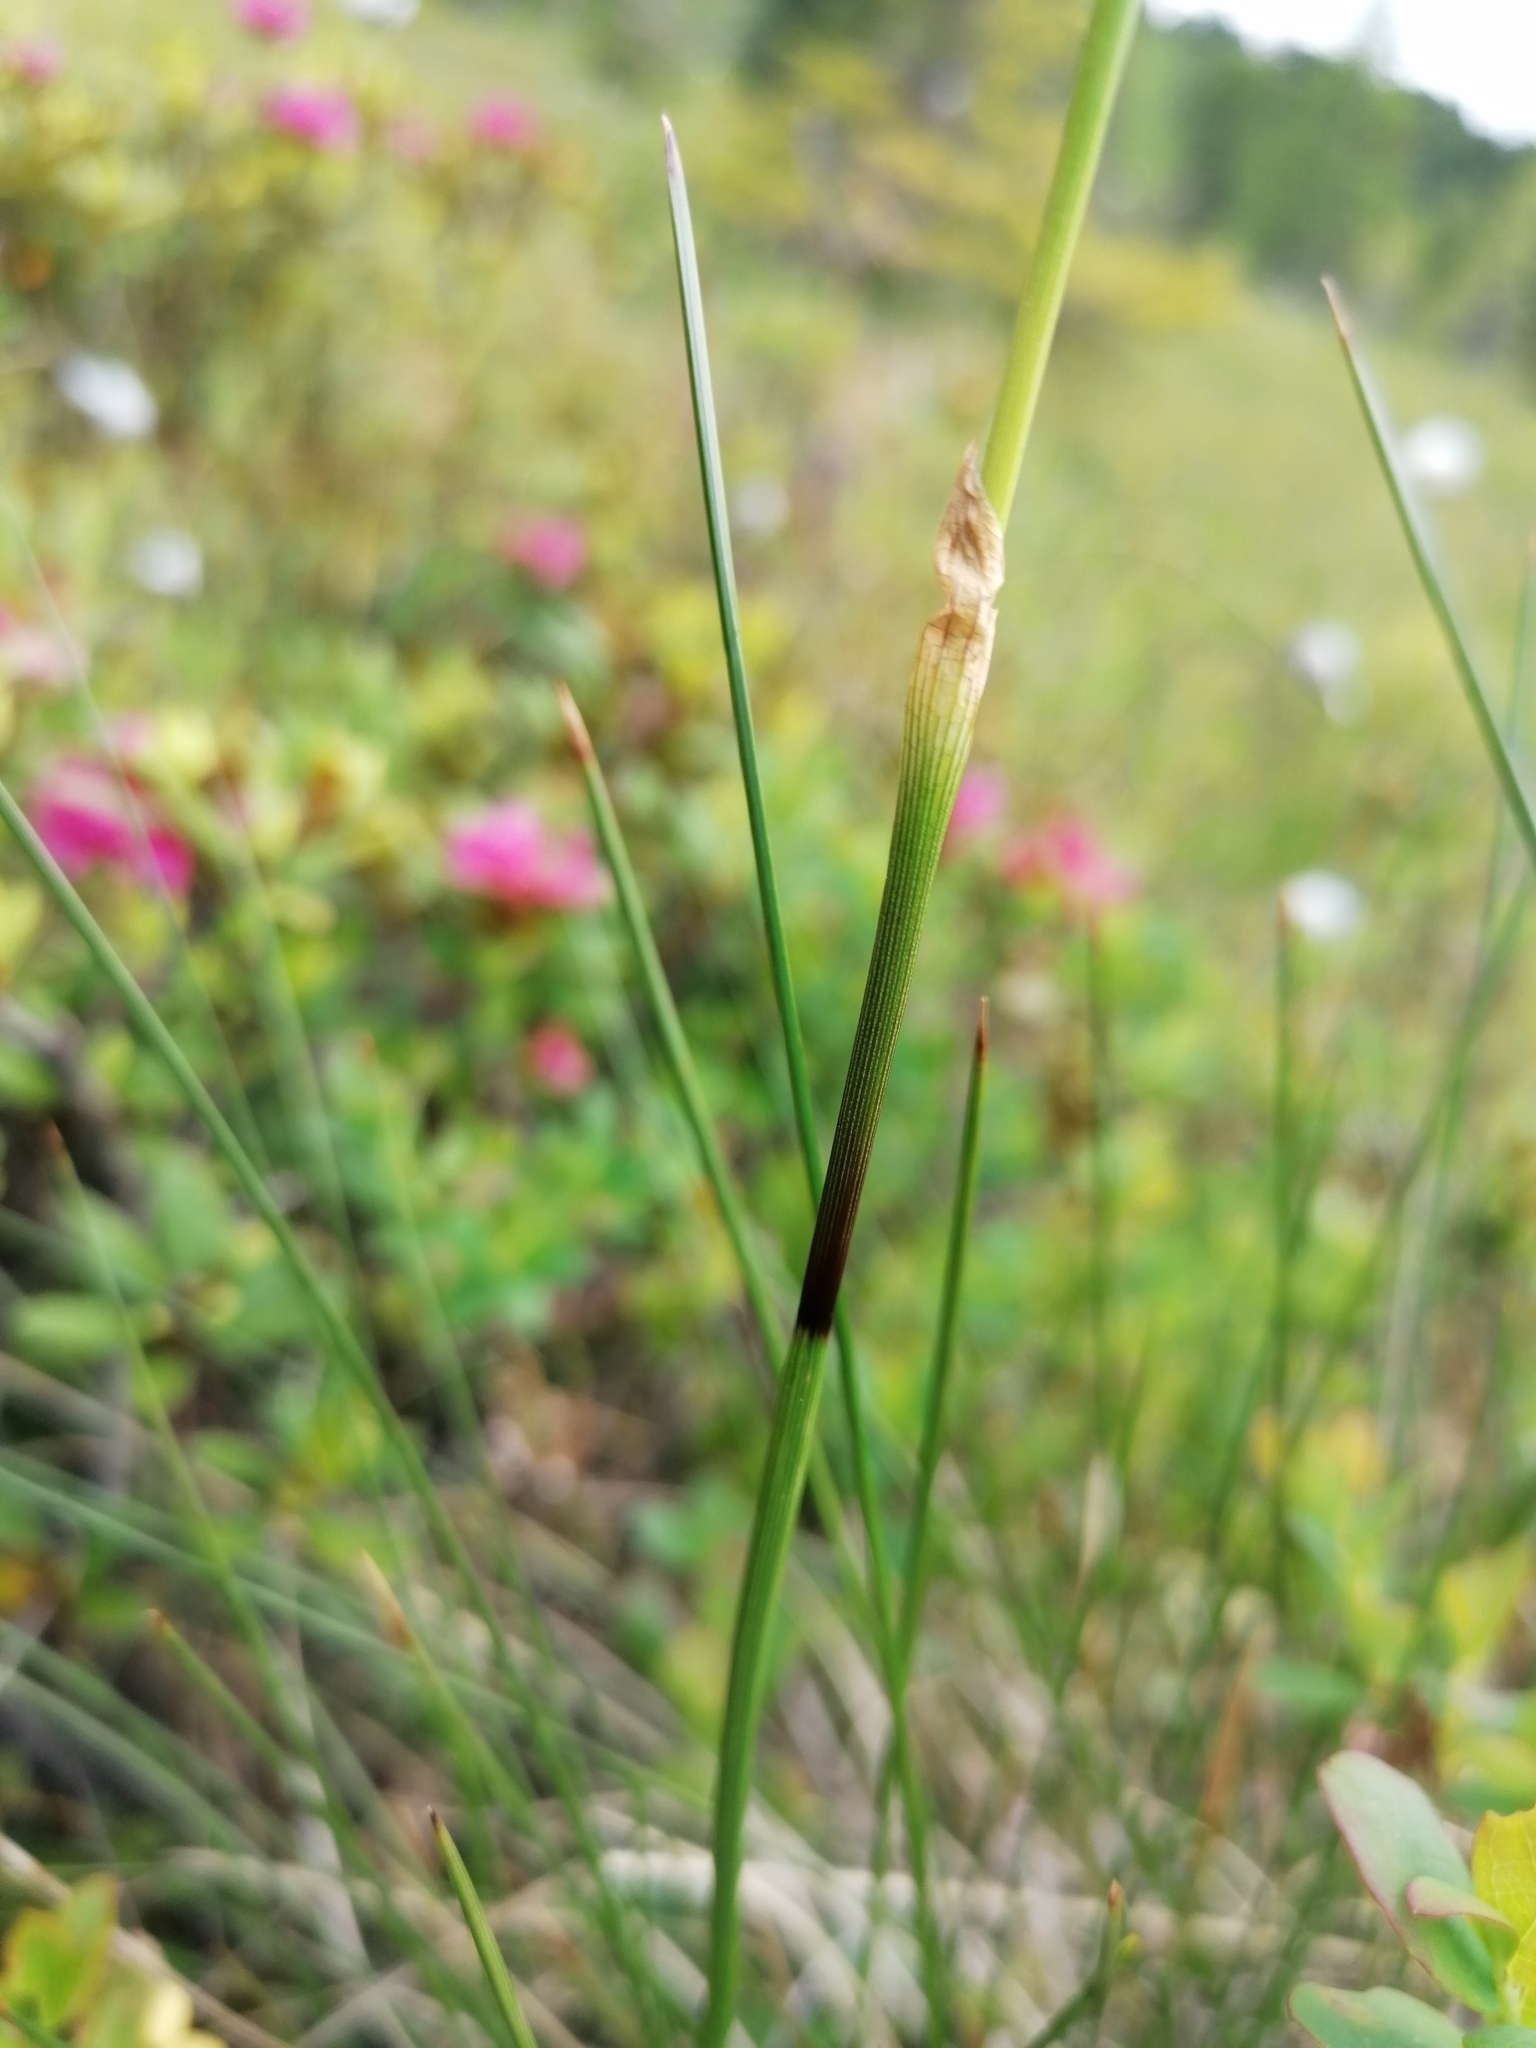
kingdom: Plantae
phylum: Tracheophyta
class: Liliopsida
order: Poales
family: Cyperaceae
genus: Eriophorum
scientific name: Eriophorum vaginatum
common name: Hare's-tail cottongrass
